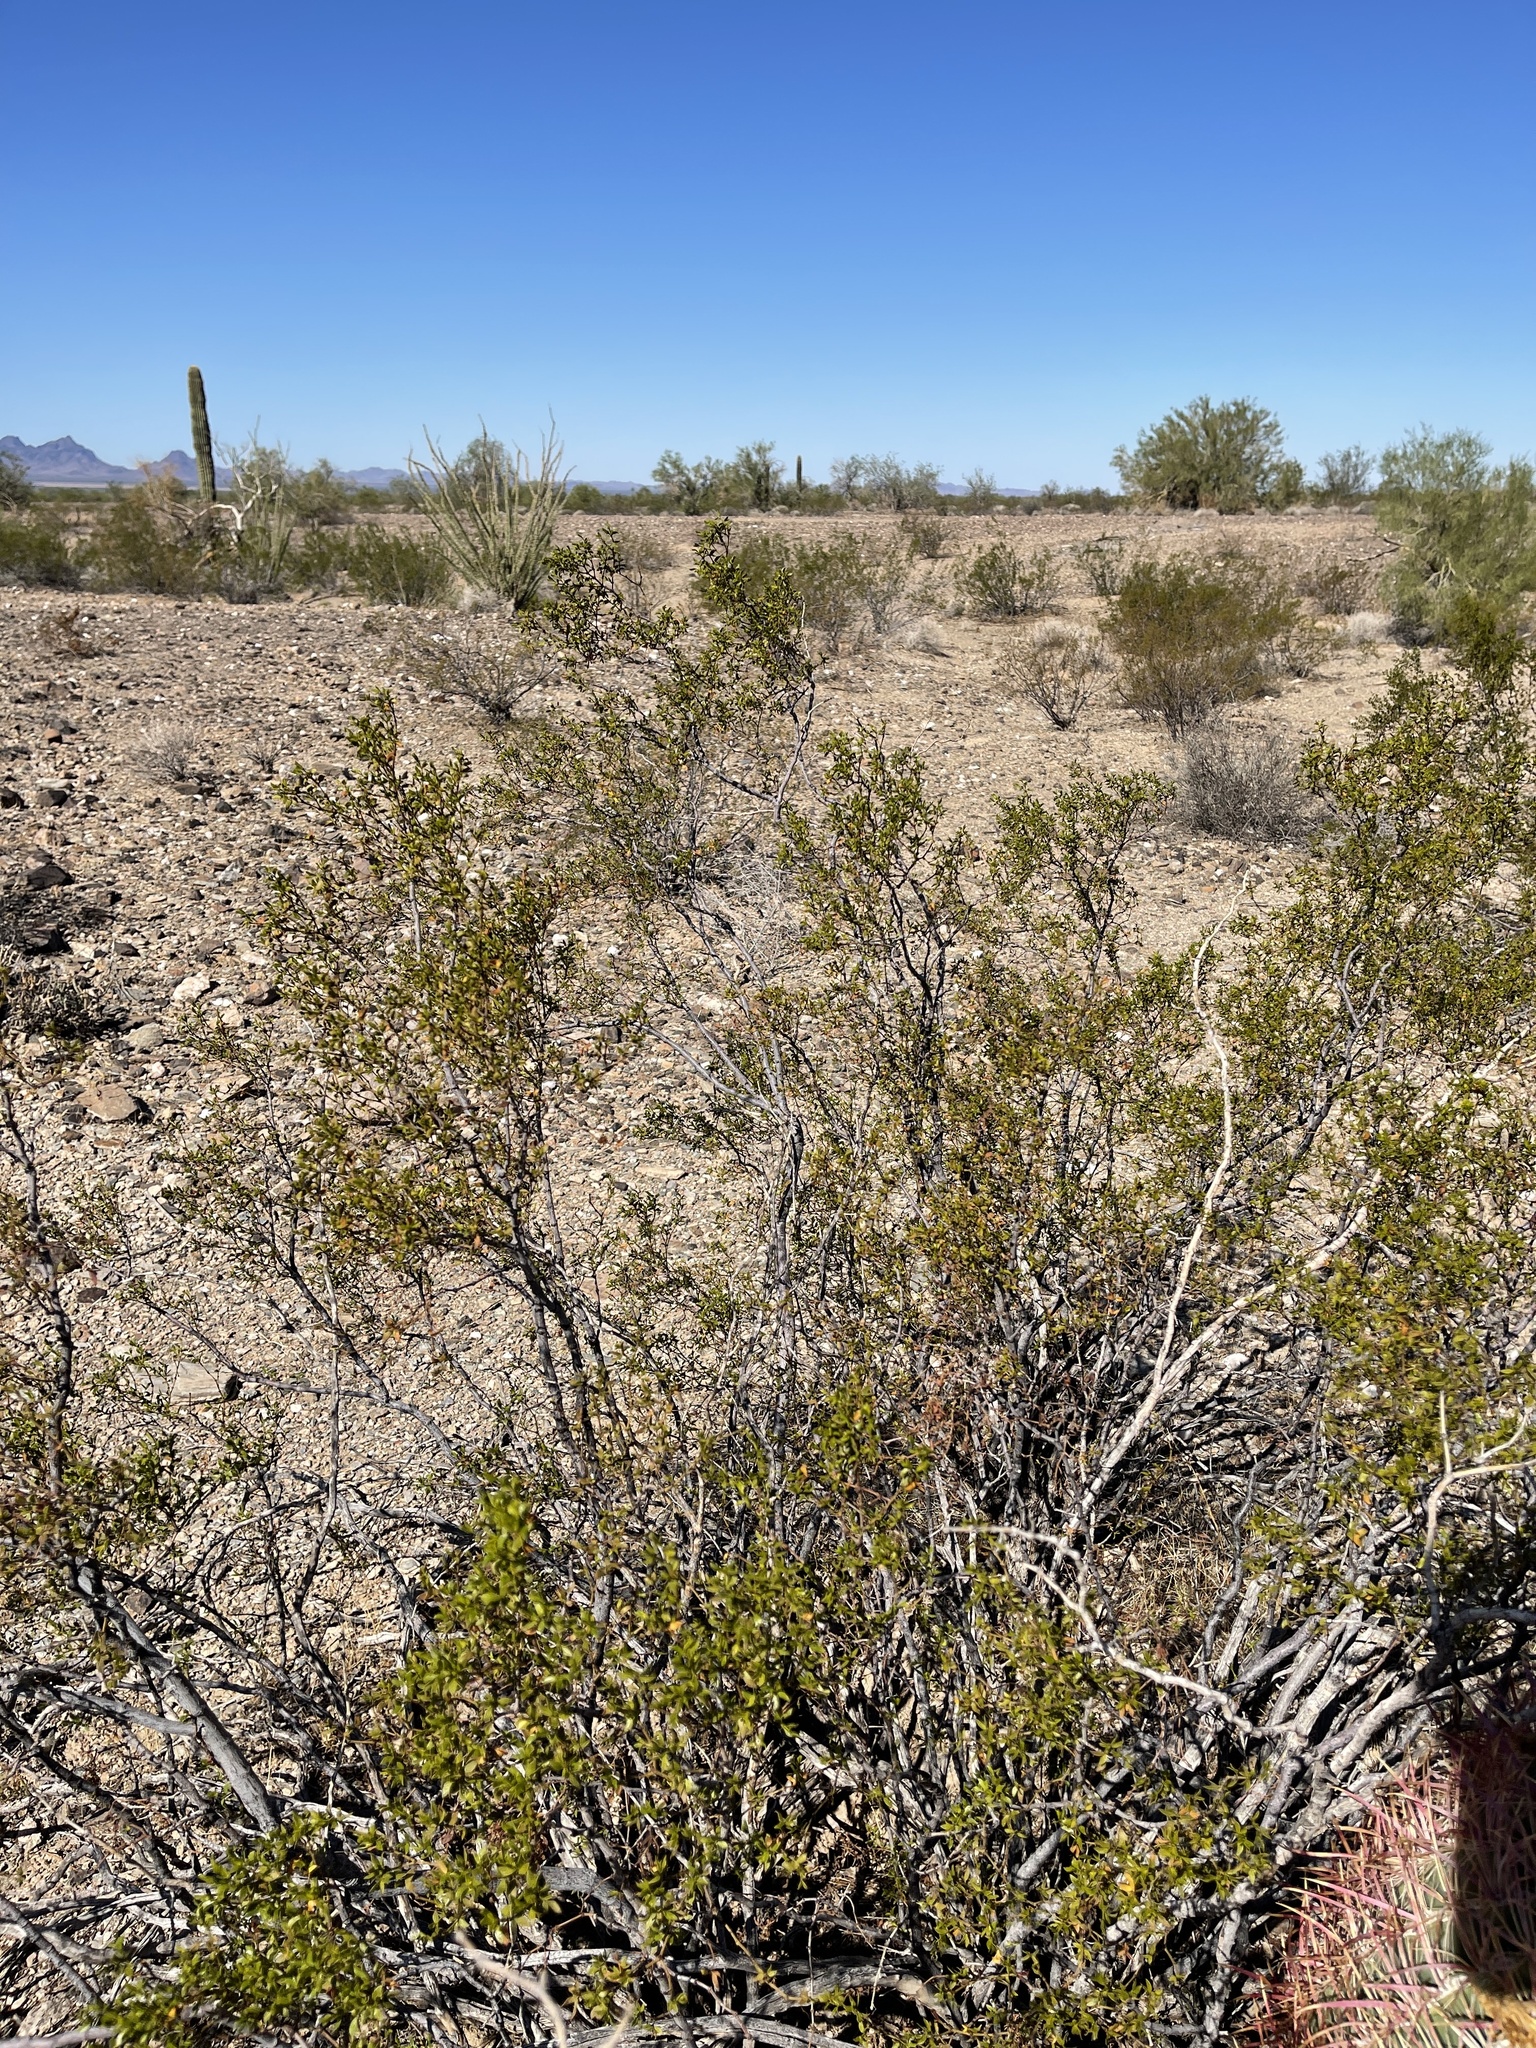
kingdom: Plantae
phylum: Tracheophyta
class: Magnoliopsida
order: Zygophyllales
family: Zygophyllaceae
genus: Larrea
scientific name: Larrea tridentata
